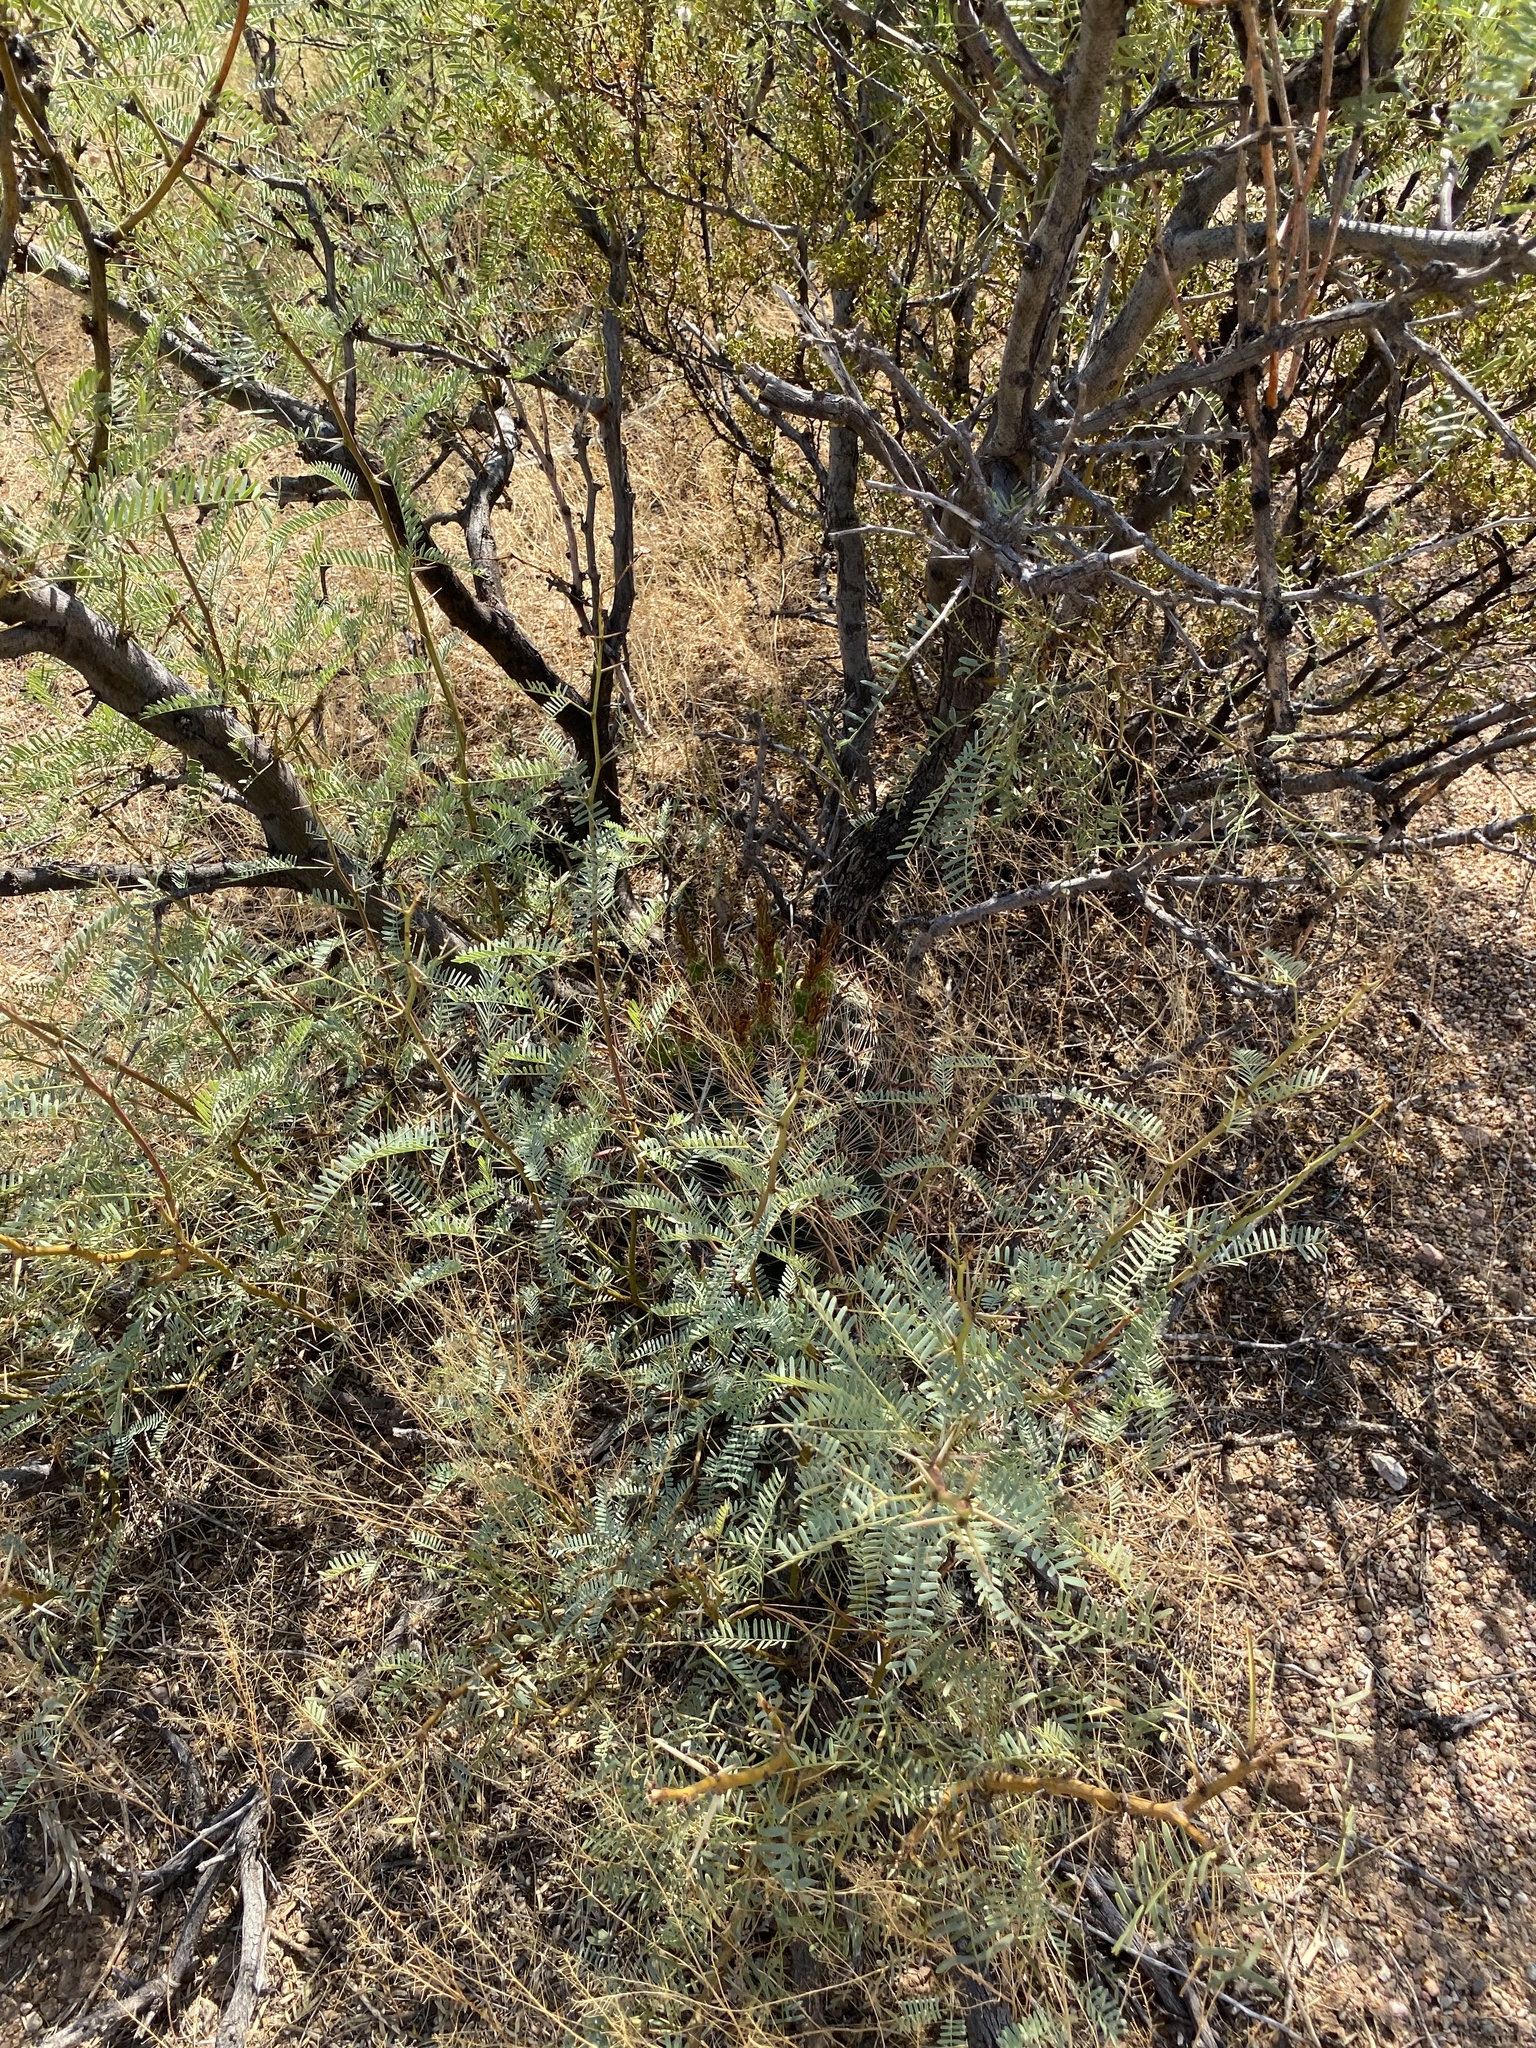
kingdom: Plantae
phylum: Tracheophyta
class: Magnoliopsida
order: Fabales
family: Fabaceae
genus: Prosopis
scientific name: Prosopis glandulosa
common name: Honey mesquite
